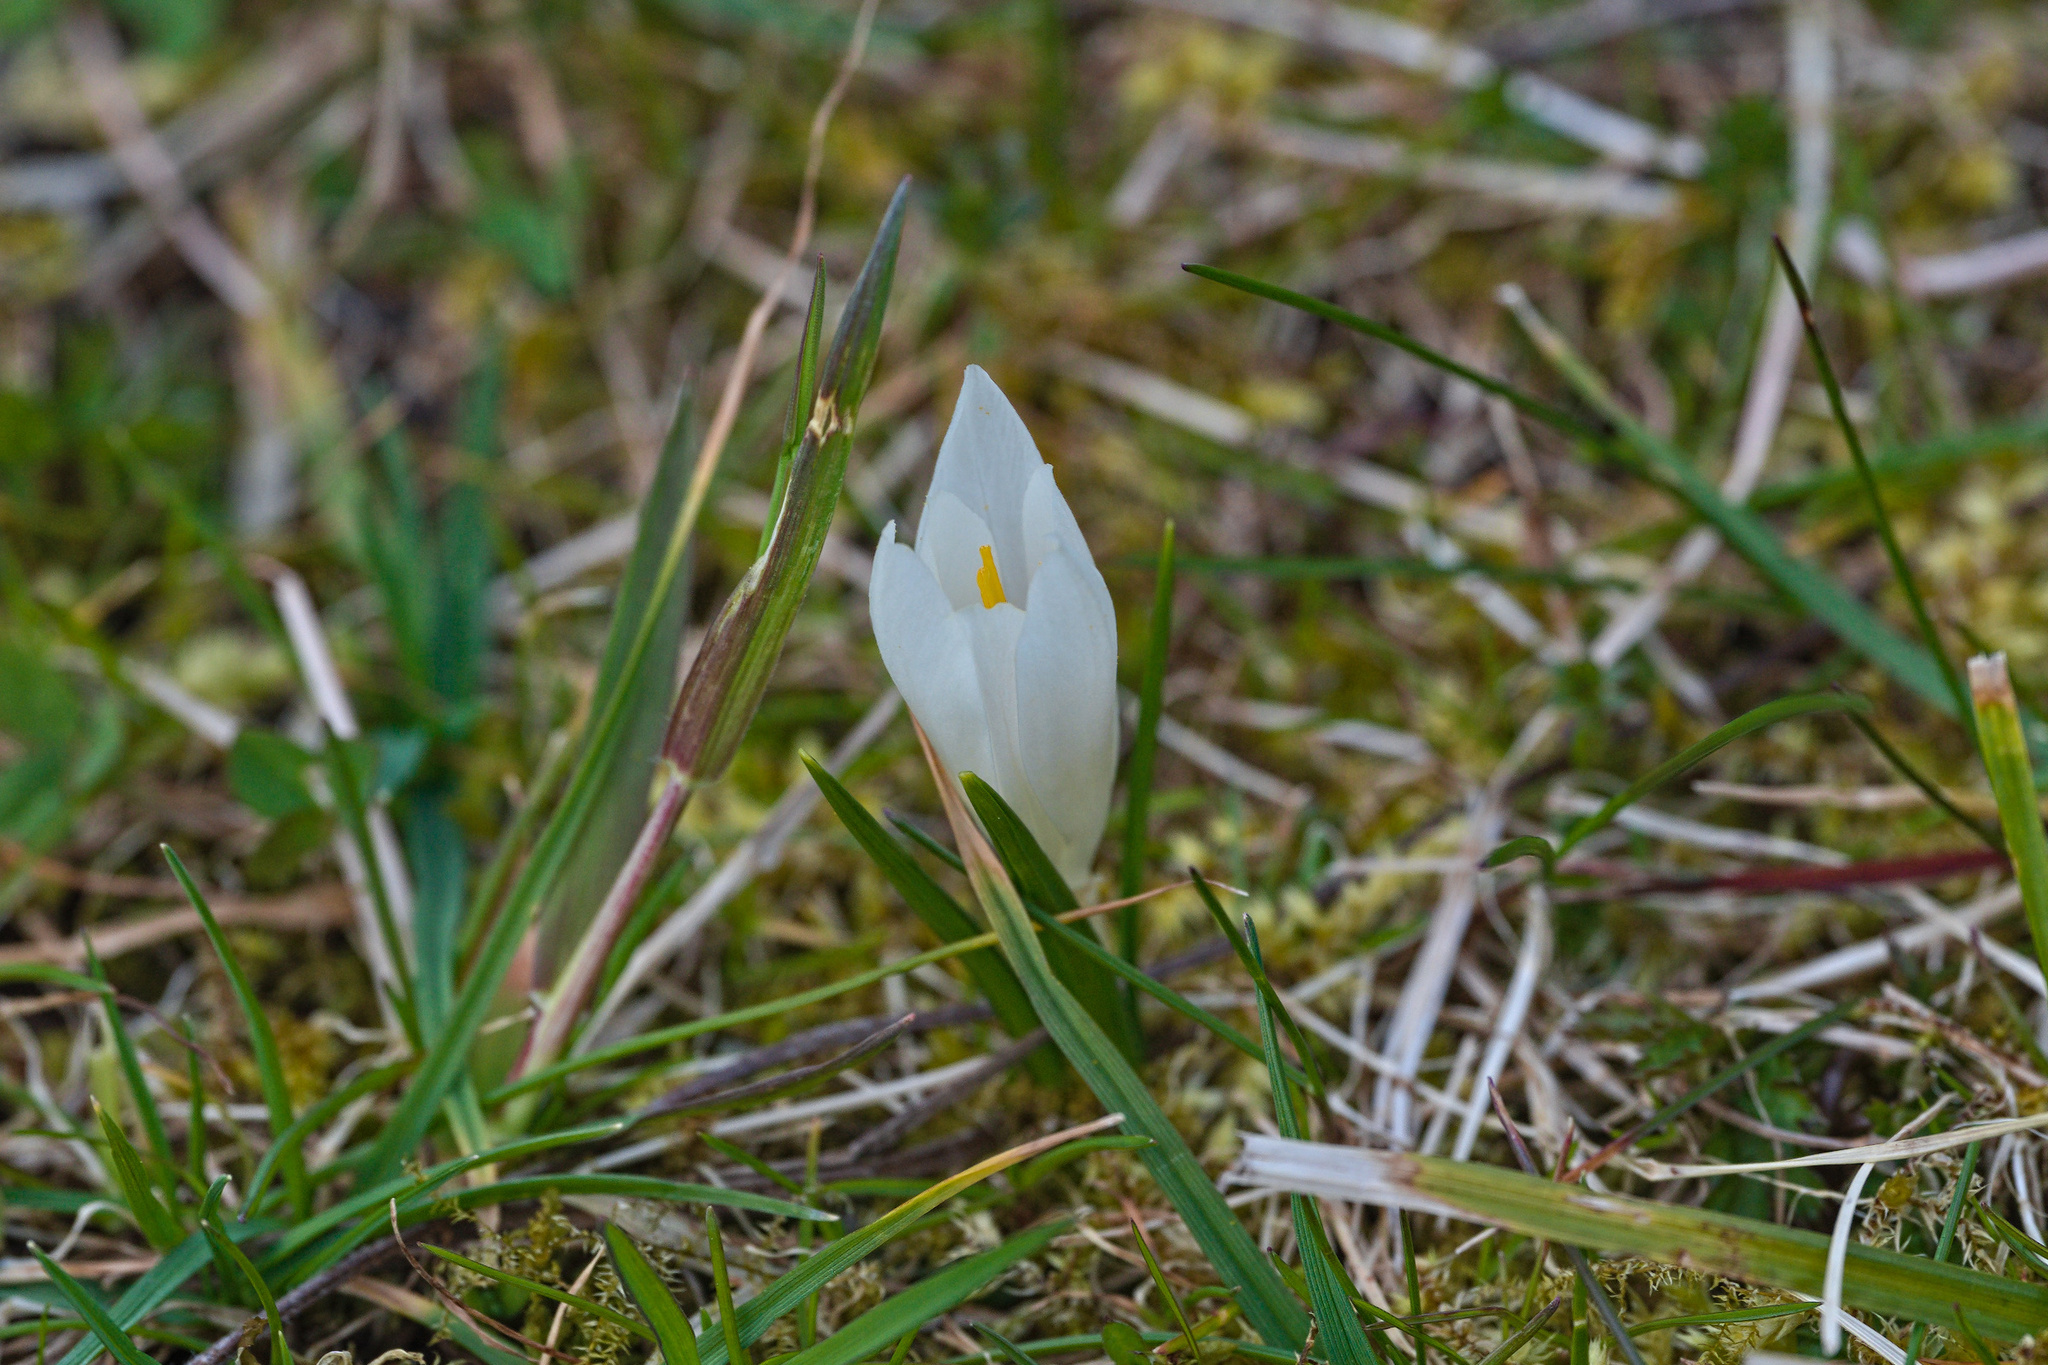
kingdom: Plantae
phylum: Tracheophyta
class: Liliopsida
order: Asparagales
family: Iridaceae
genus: Crocus
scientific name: Crocus vernus
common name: Spring crocus
